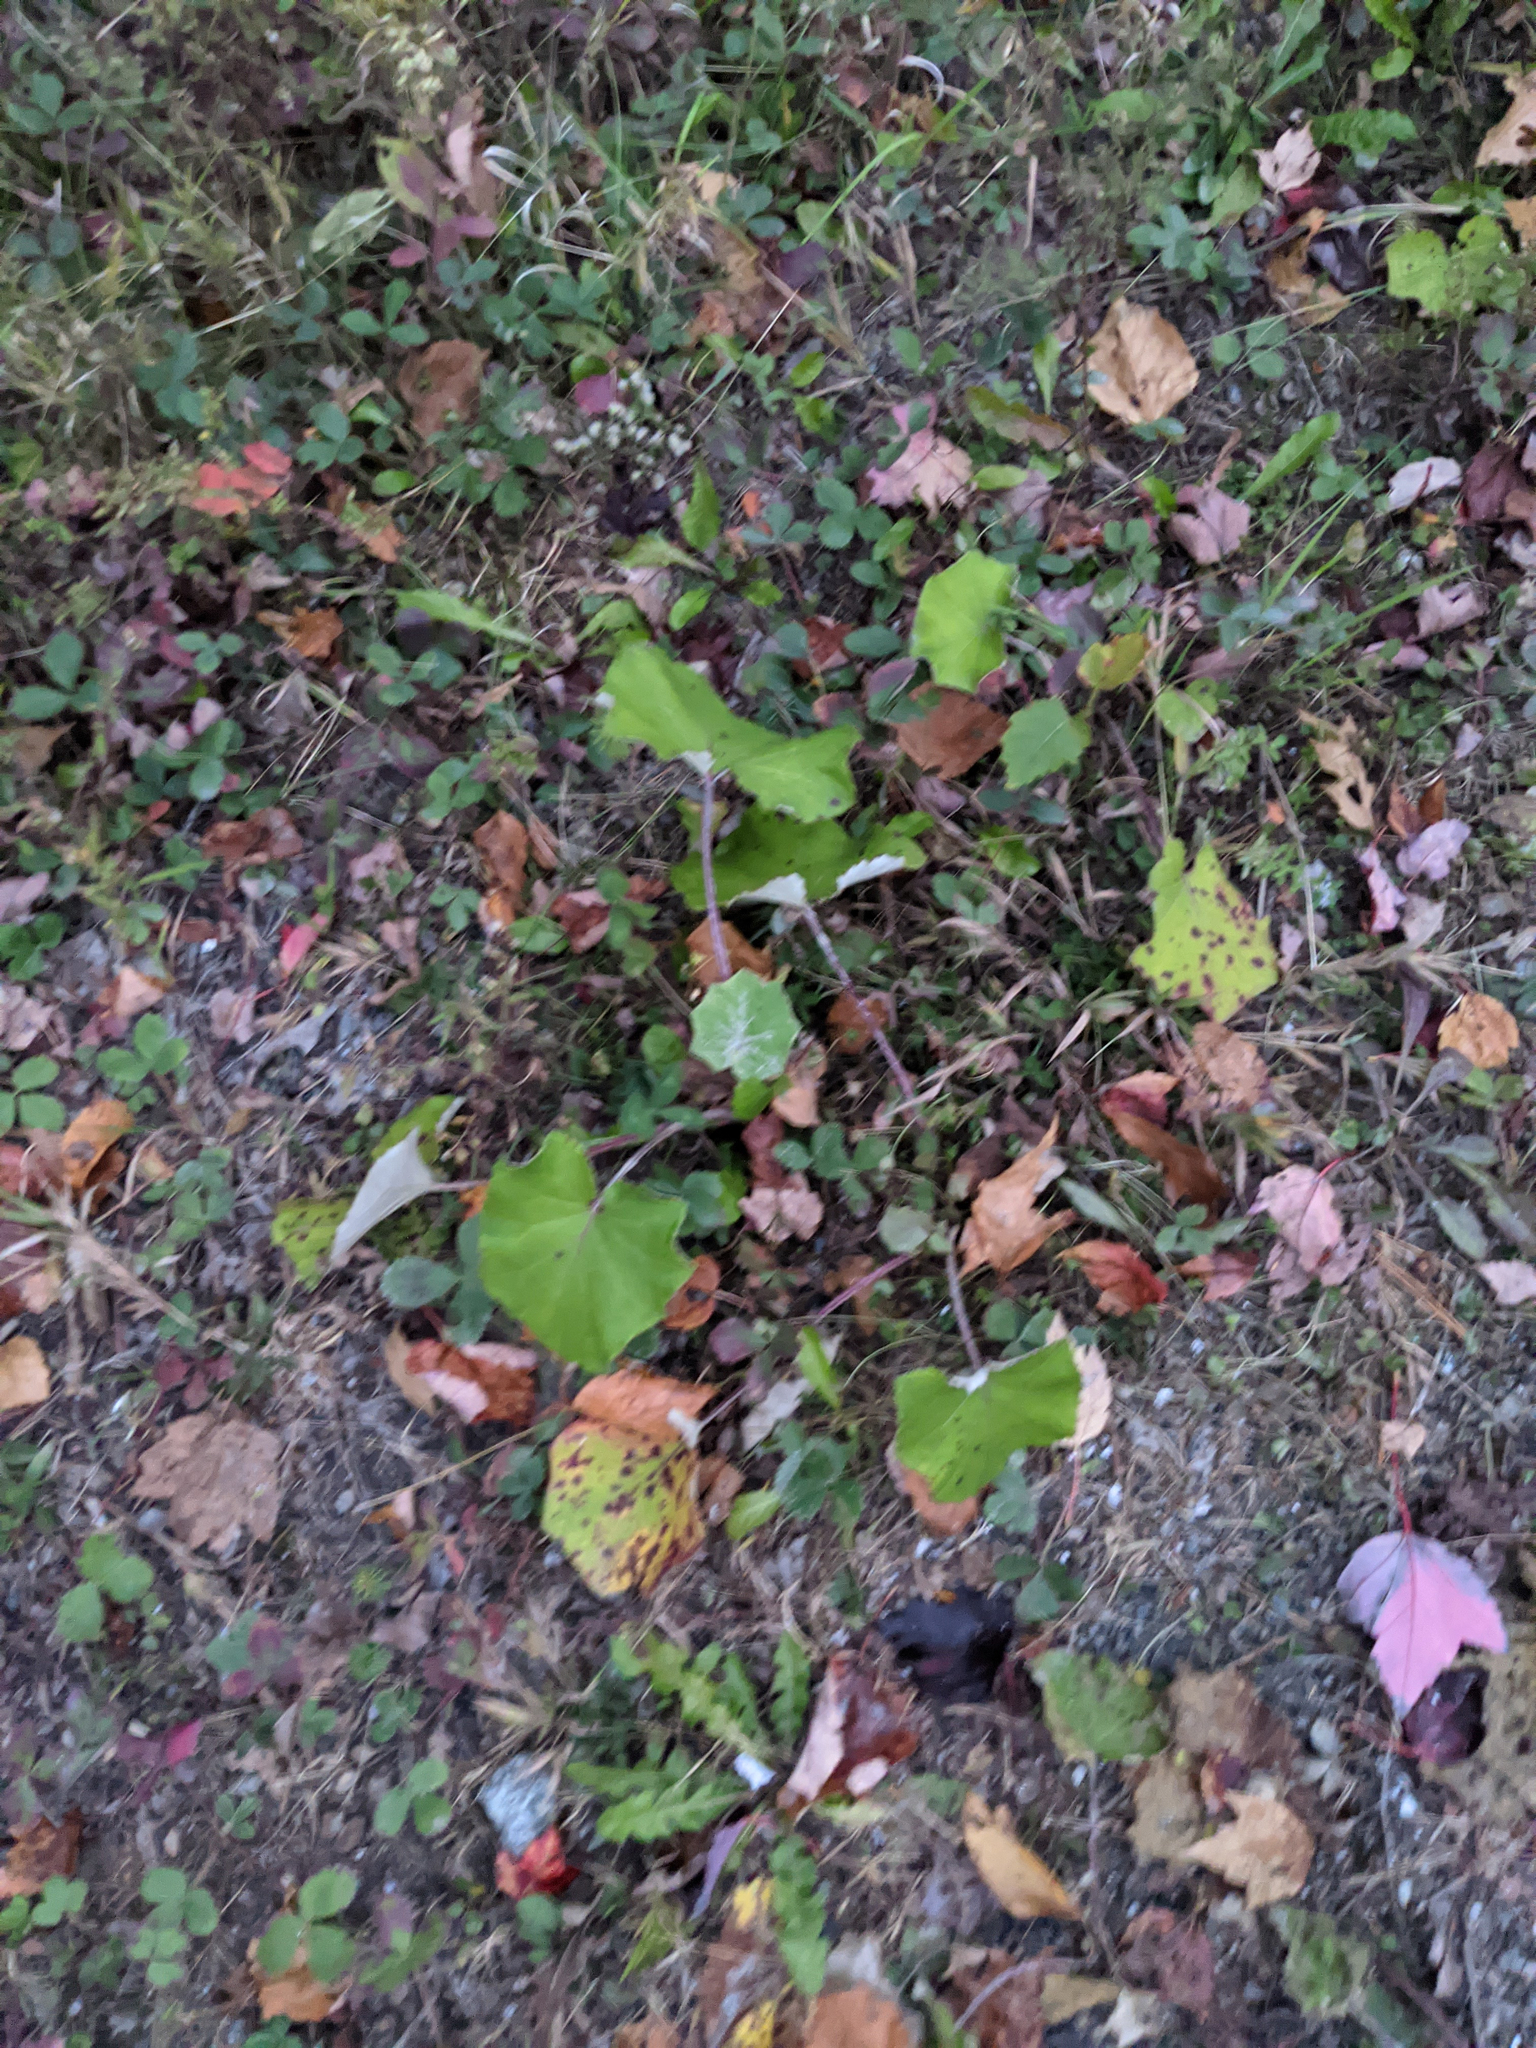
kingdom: Plantae
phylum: Tracheophyta
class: Magnoliopsida
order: Asterales
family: Asteraceae
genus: Tussilago
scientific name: Tussilago farfara
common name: Coltsfoot
